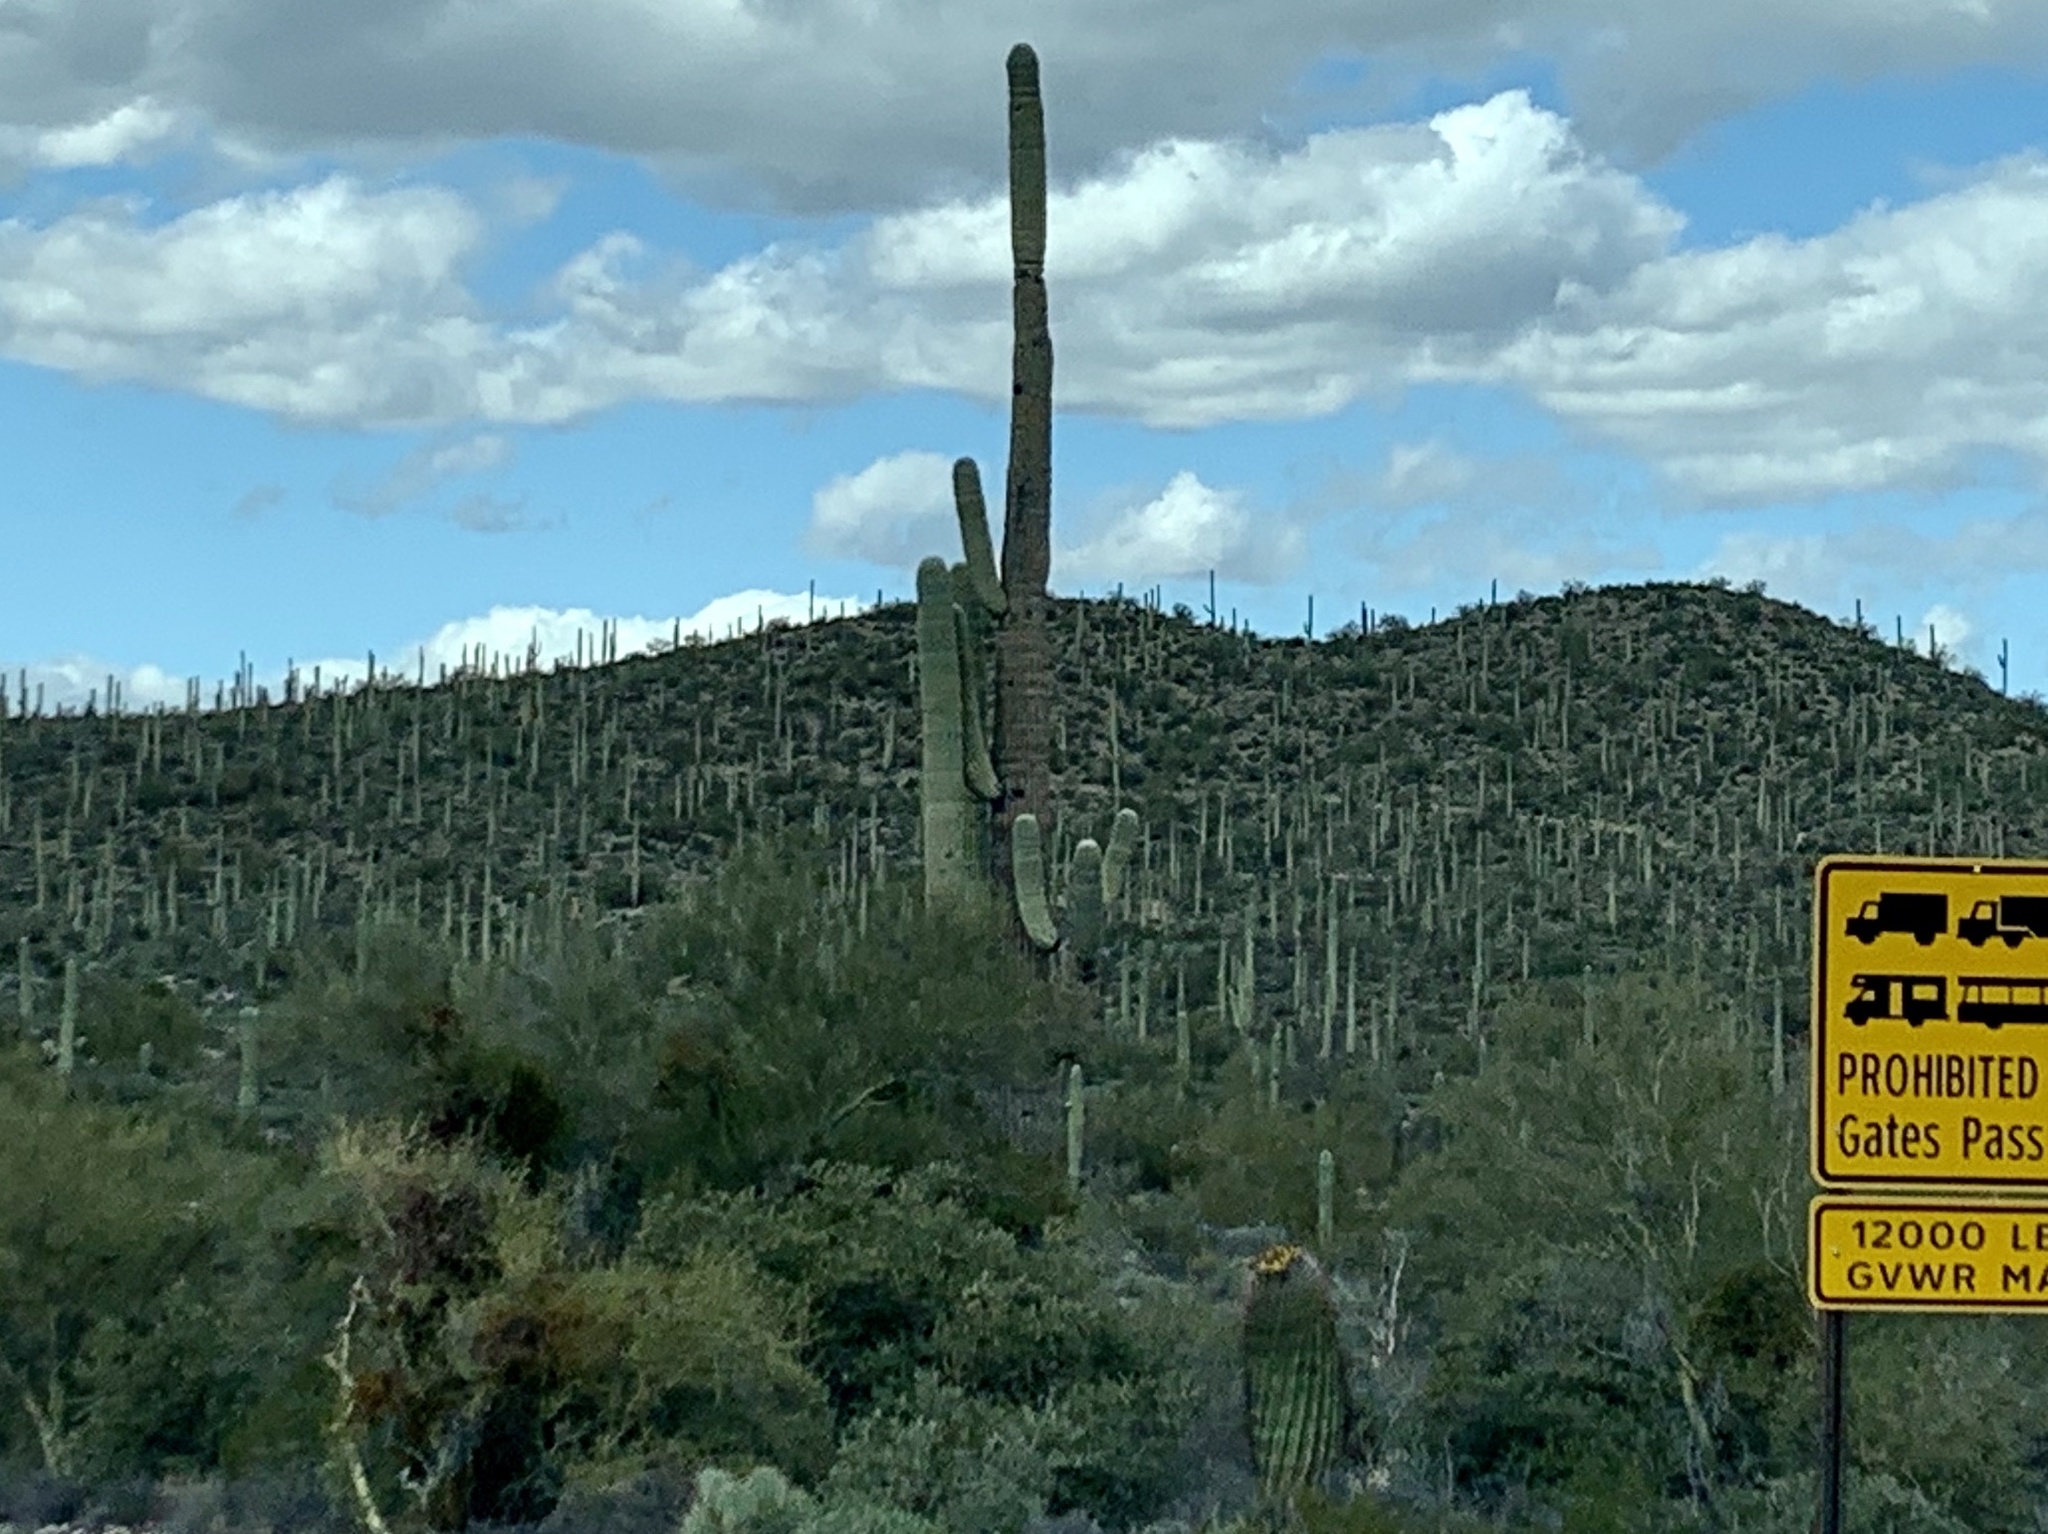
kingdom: Plantae
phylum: Tracheophyta
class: Magnoliopsida
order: Caryophyllales
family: Cactaceae
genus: Carnegiea
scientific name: Carnegiea gigantea
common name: Saguaro
